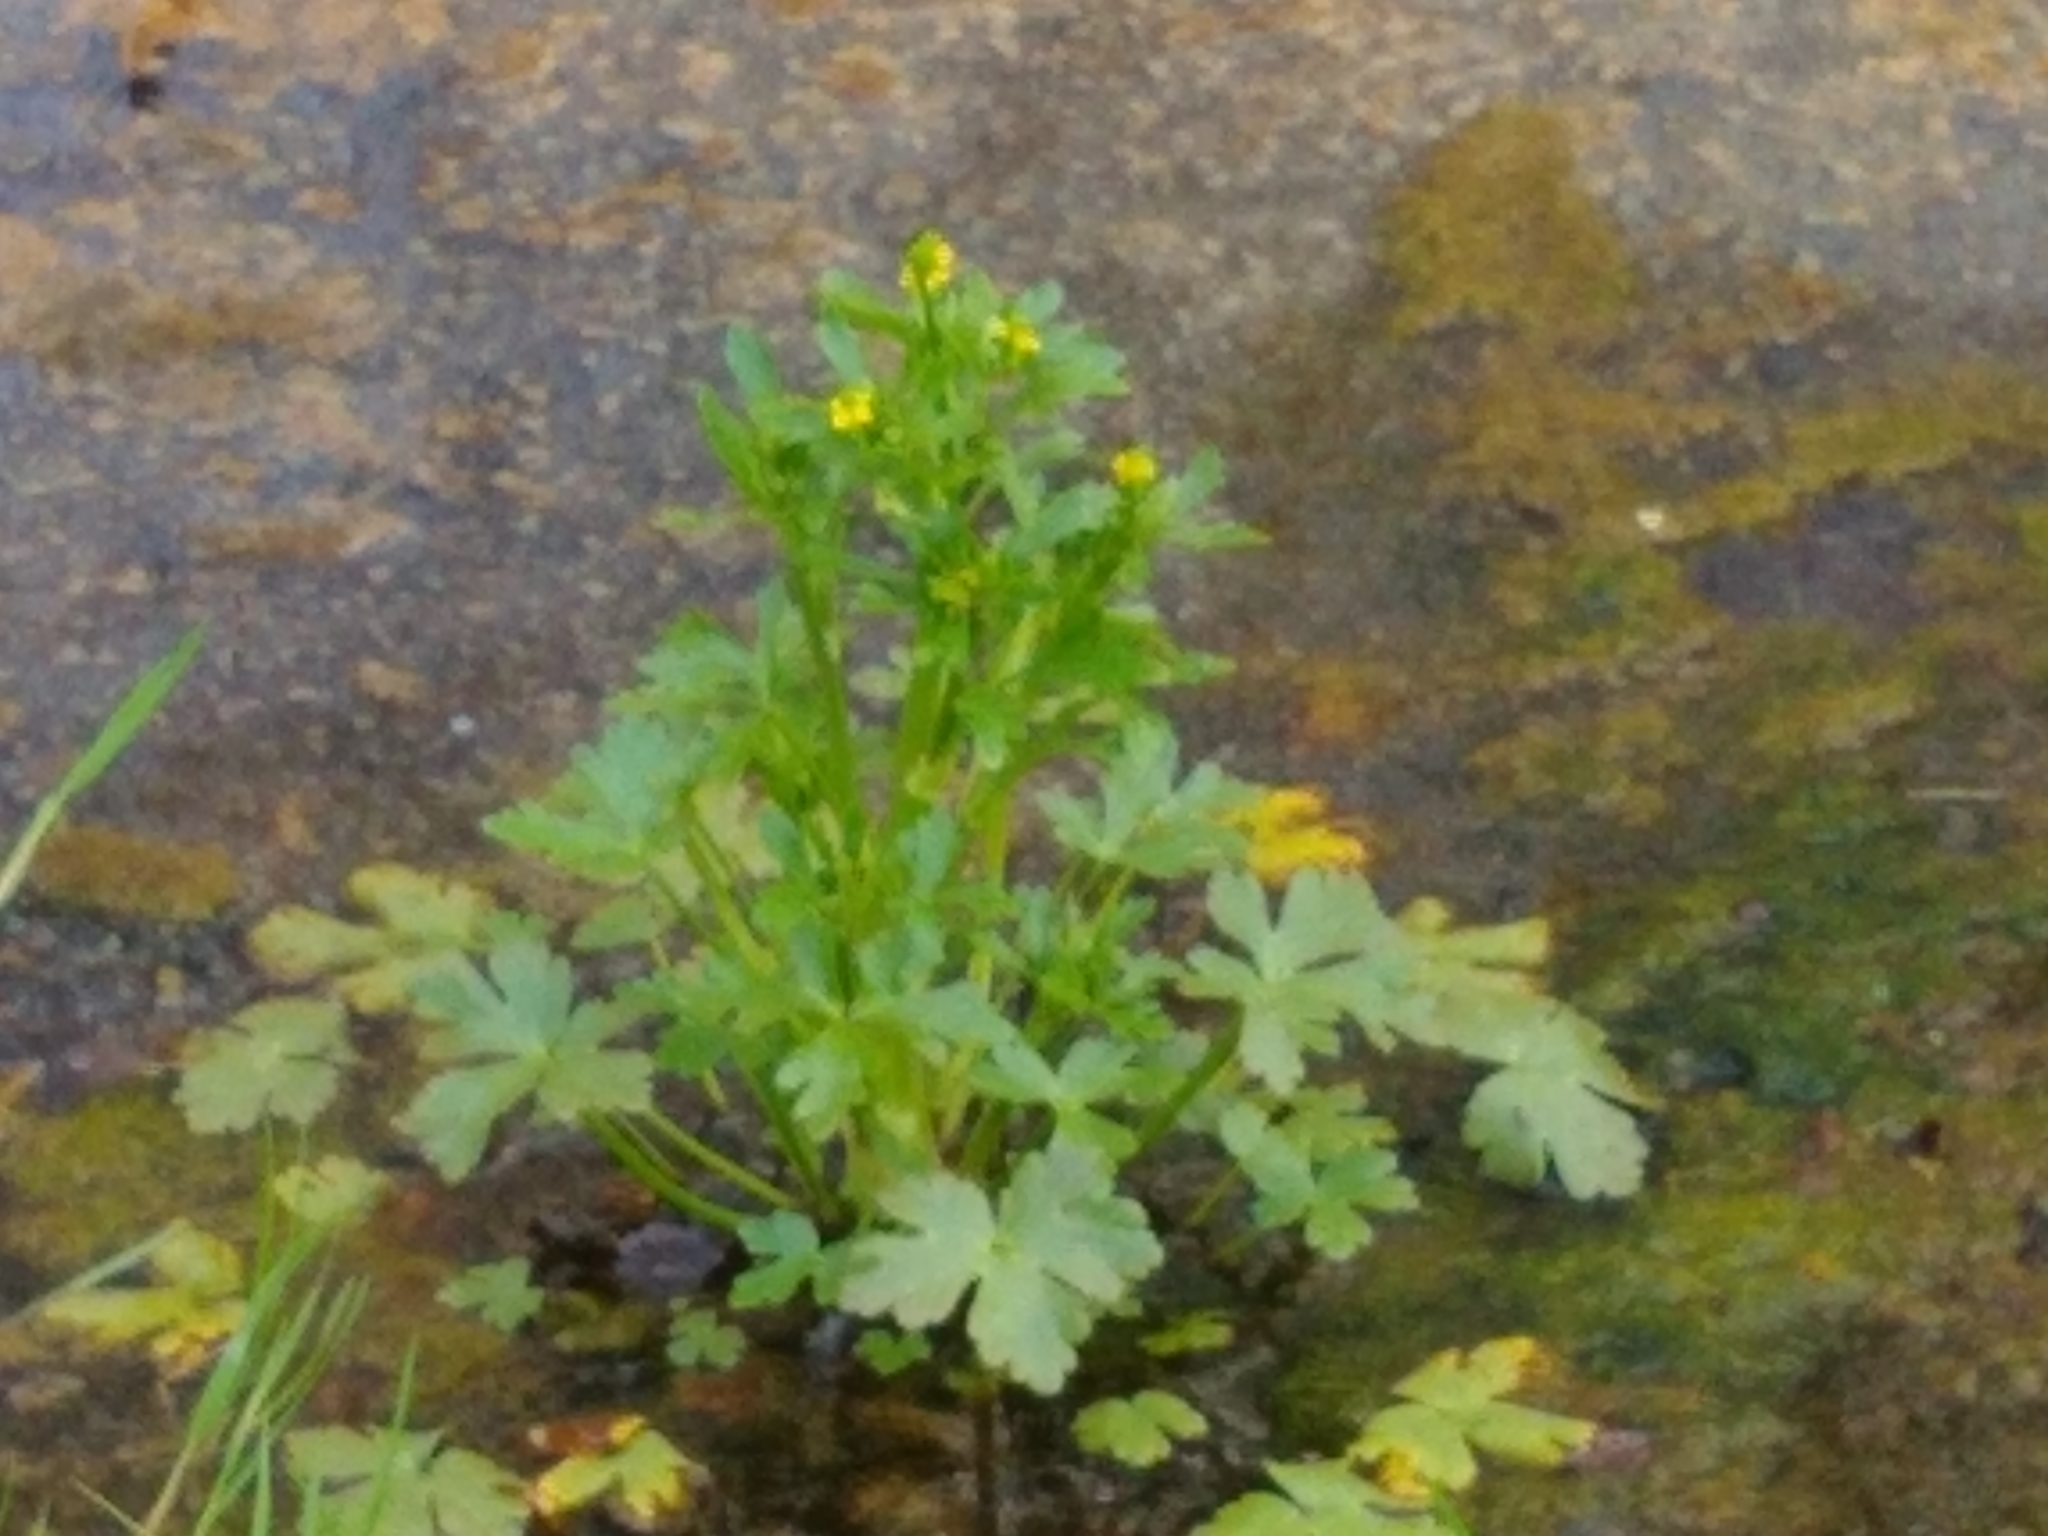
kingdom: Plantae
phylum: Tracheophyta
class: Magnoliopsida
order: Ranunculales
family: Ranunculaceae
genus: Ranunculus
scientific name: Ranunculus sceleratus
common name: Celery-leaved buttercup
